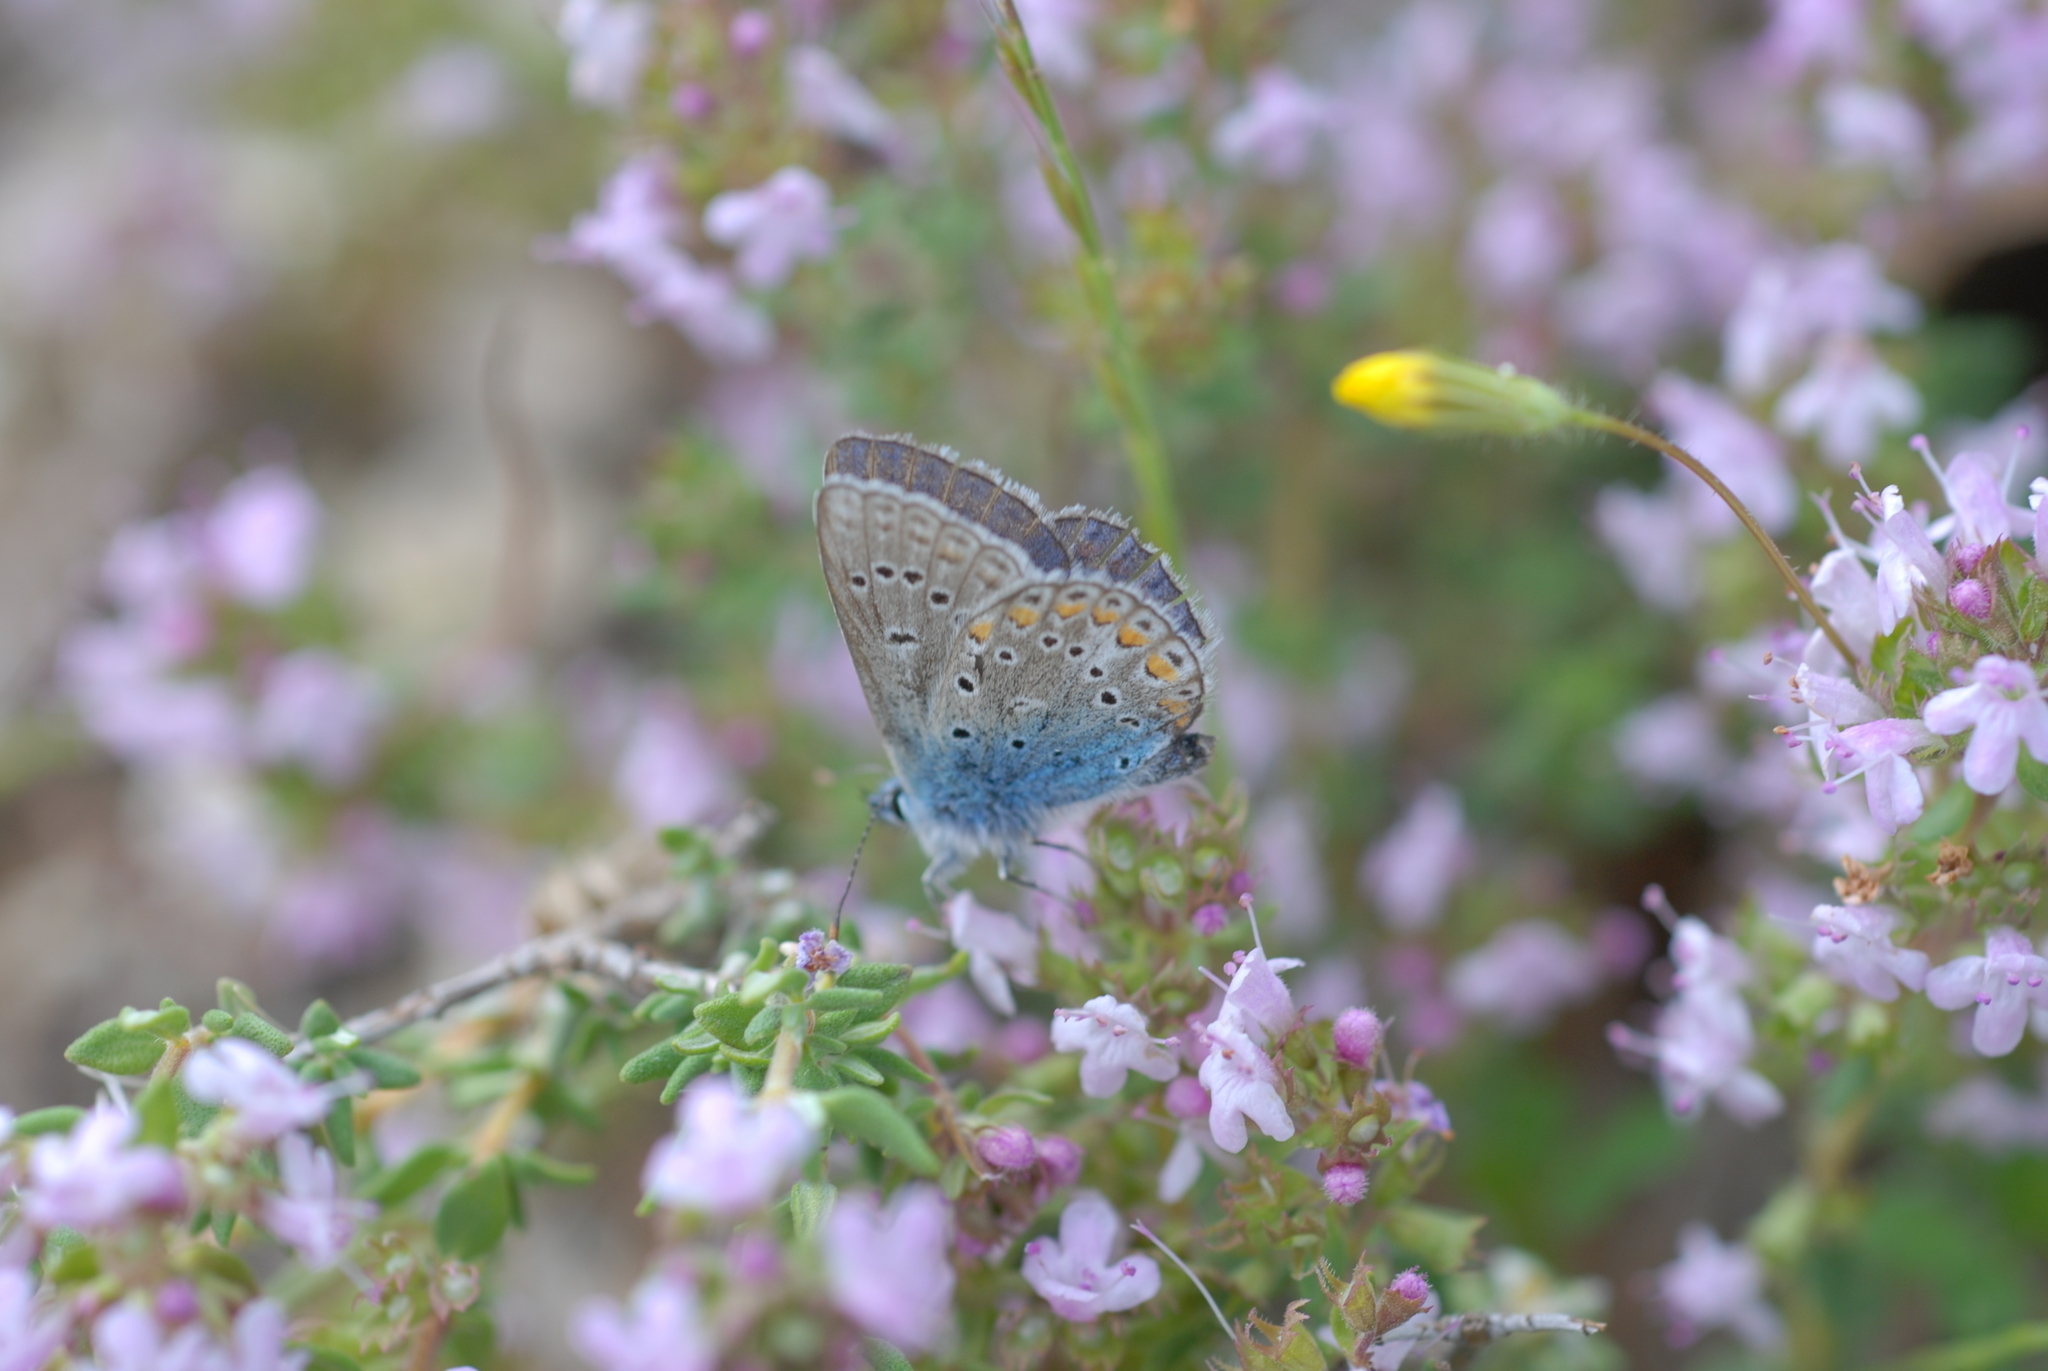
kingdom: Animalia
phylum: Arthropoda
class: Insecta
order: Lepidoptera
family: Lycaenidae
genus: Polyommatus
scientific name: Polyommatus thersites
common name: Chapman's blue
